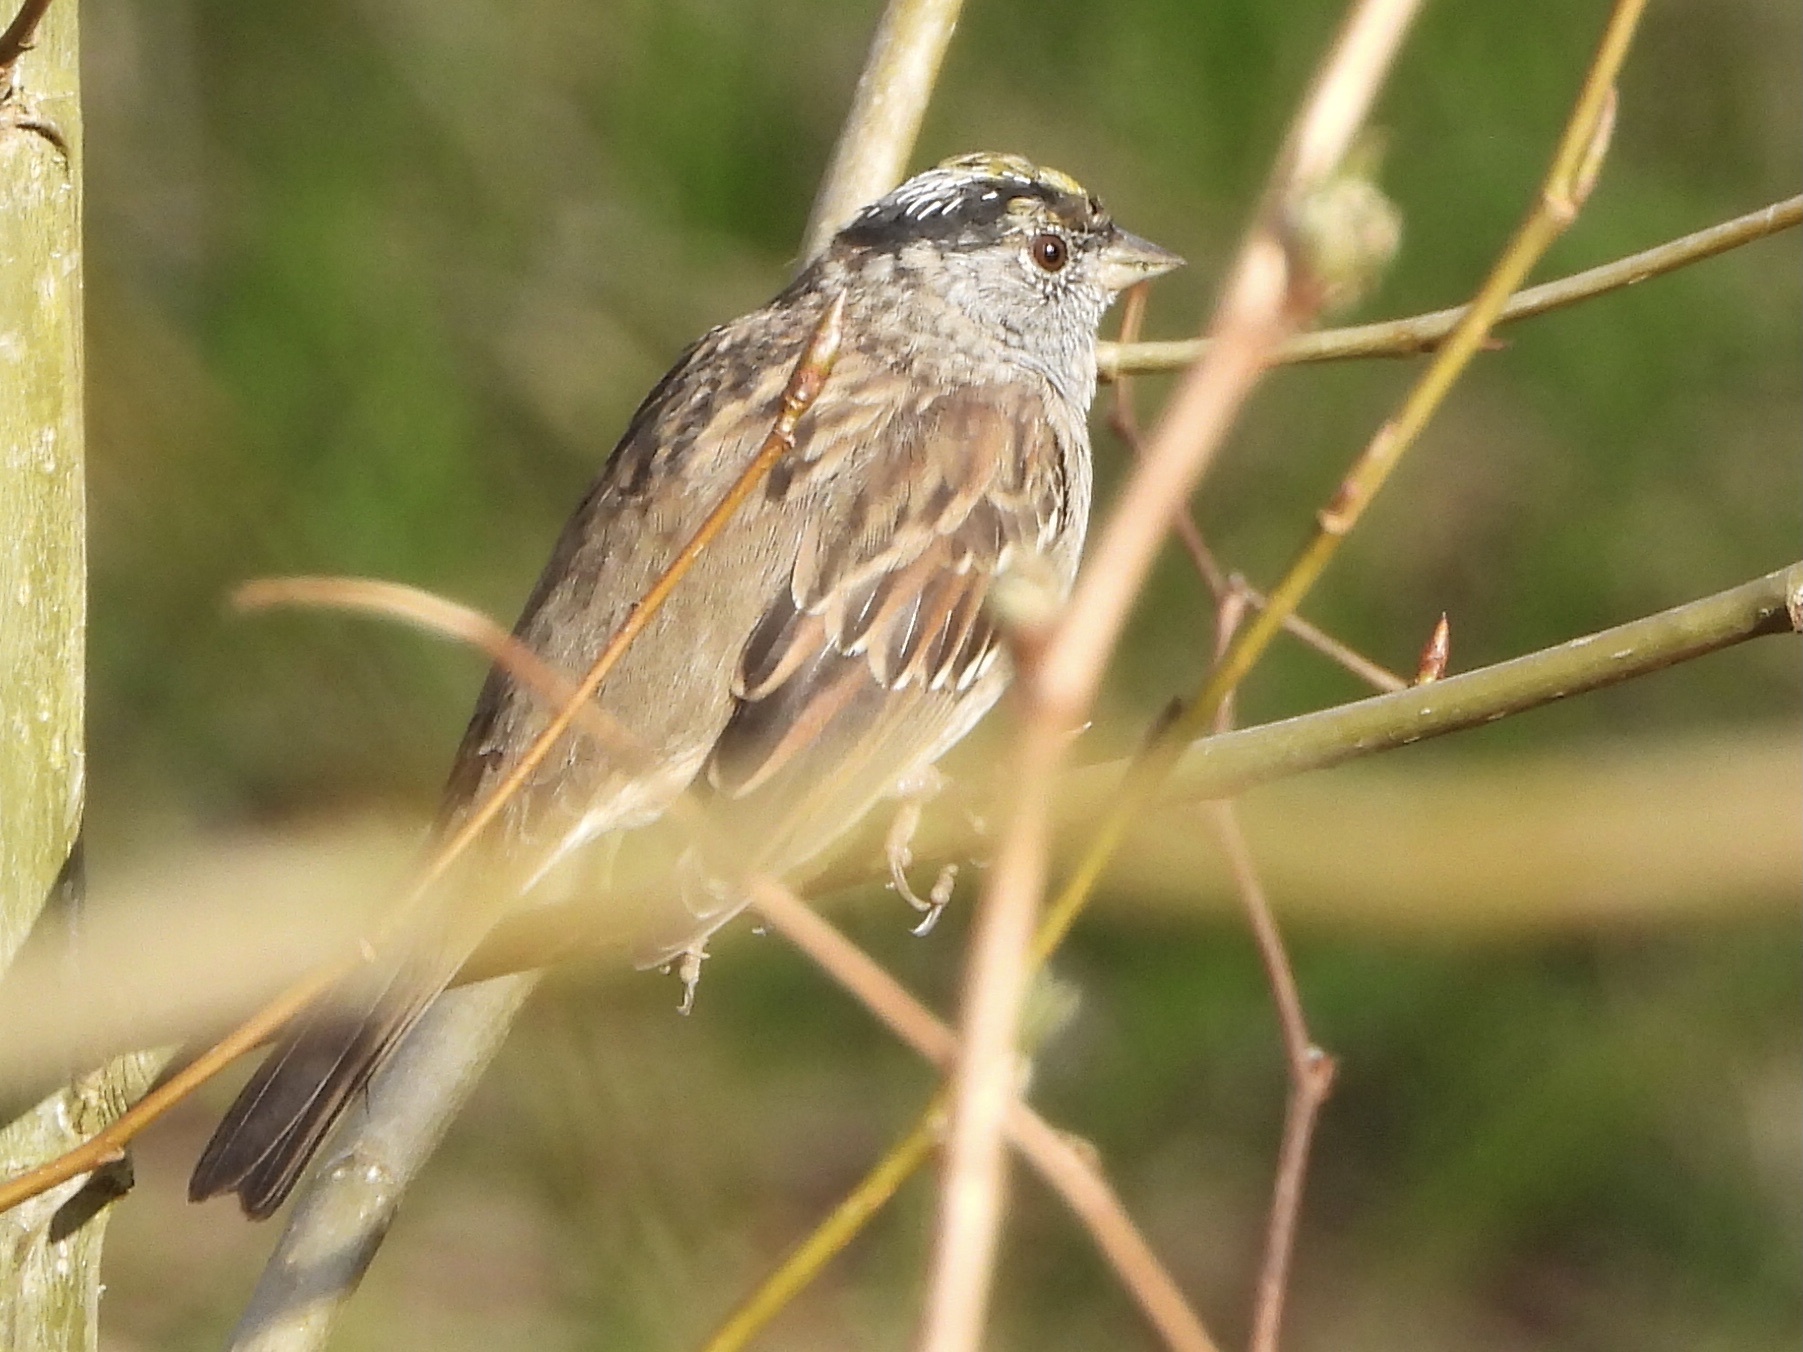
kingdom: Animalia
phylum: Chordata
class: Aves
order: Passeriformes
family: Passerellidae
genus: Zonotrichia
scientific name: Zonotrichia atricapilla
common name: Golden-crowned sparrow
